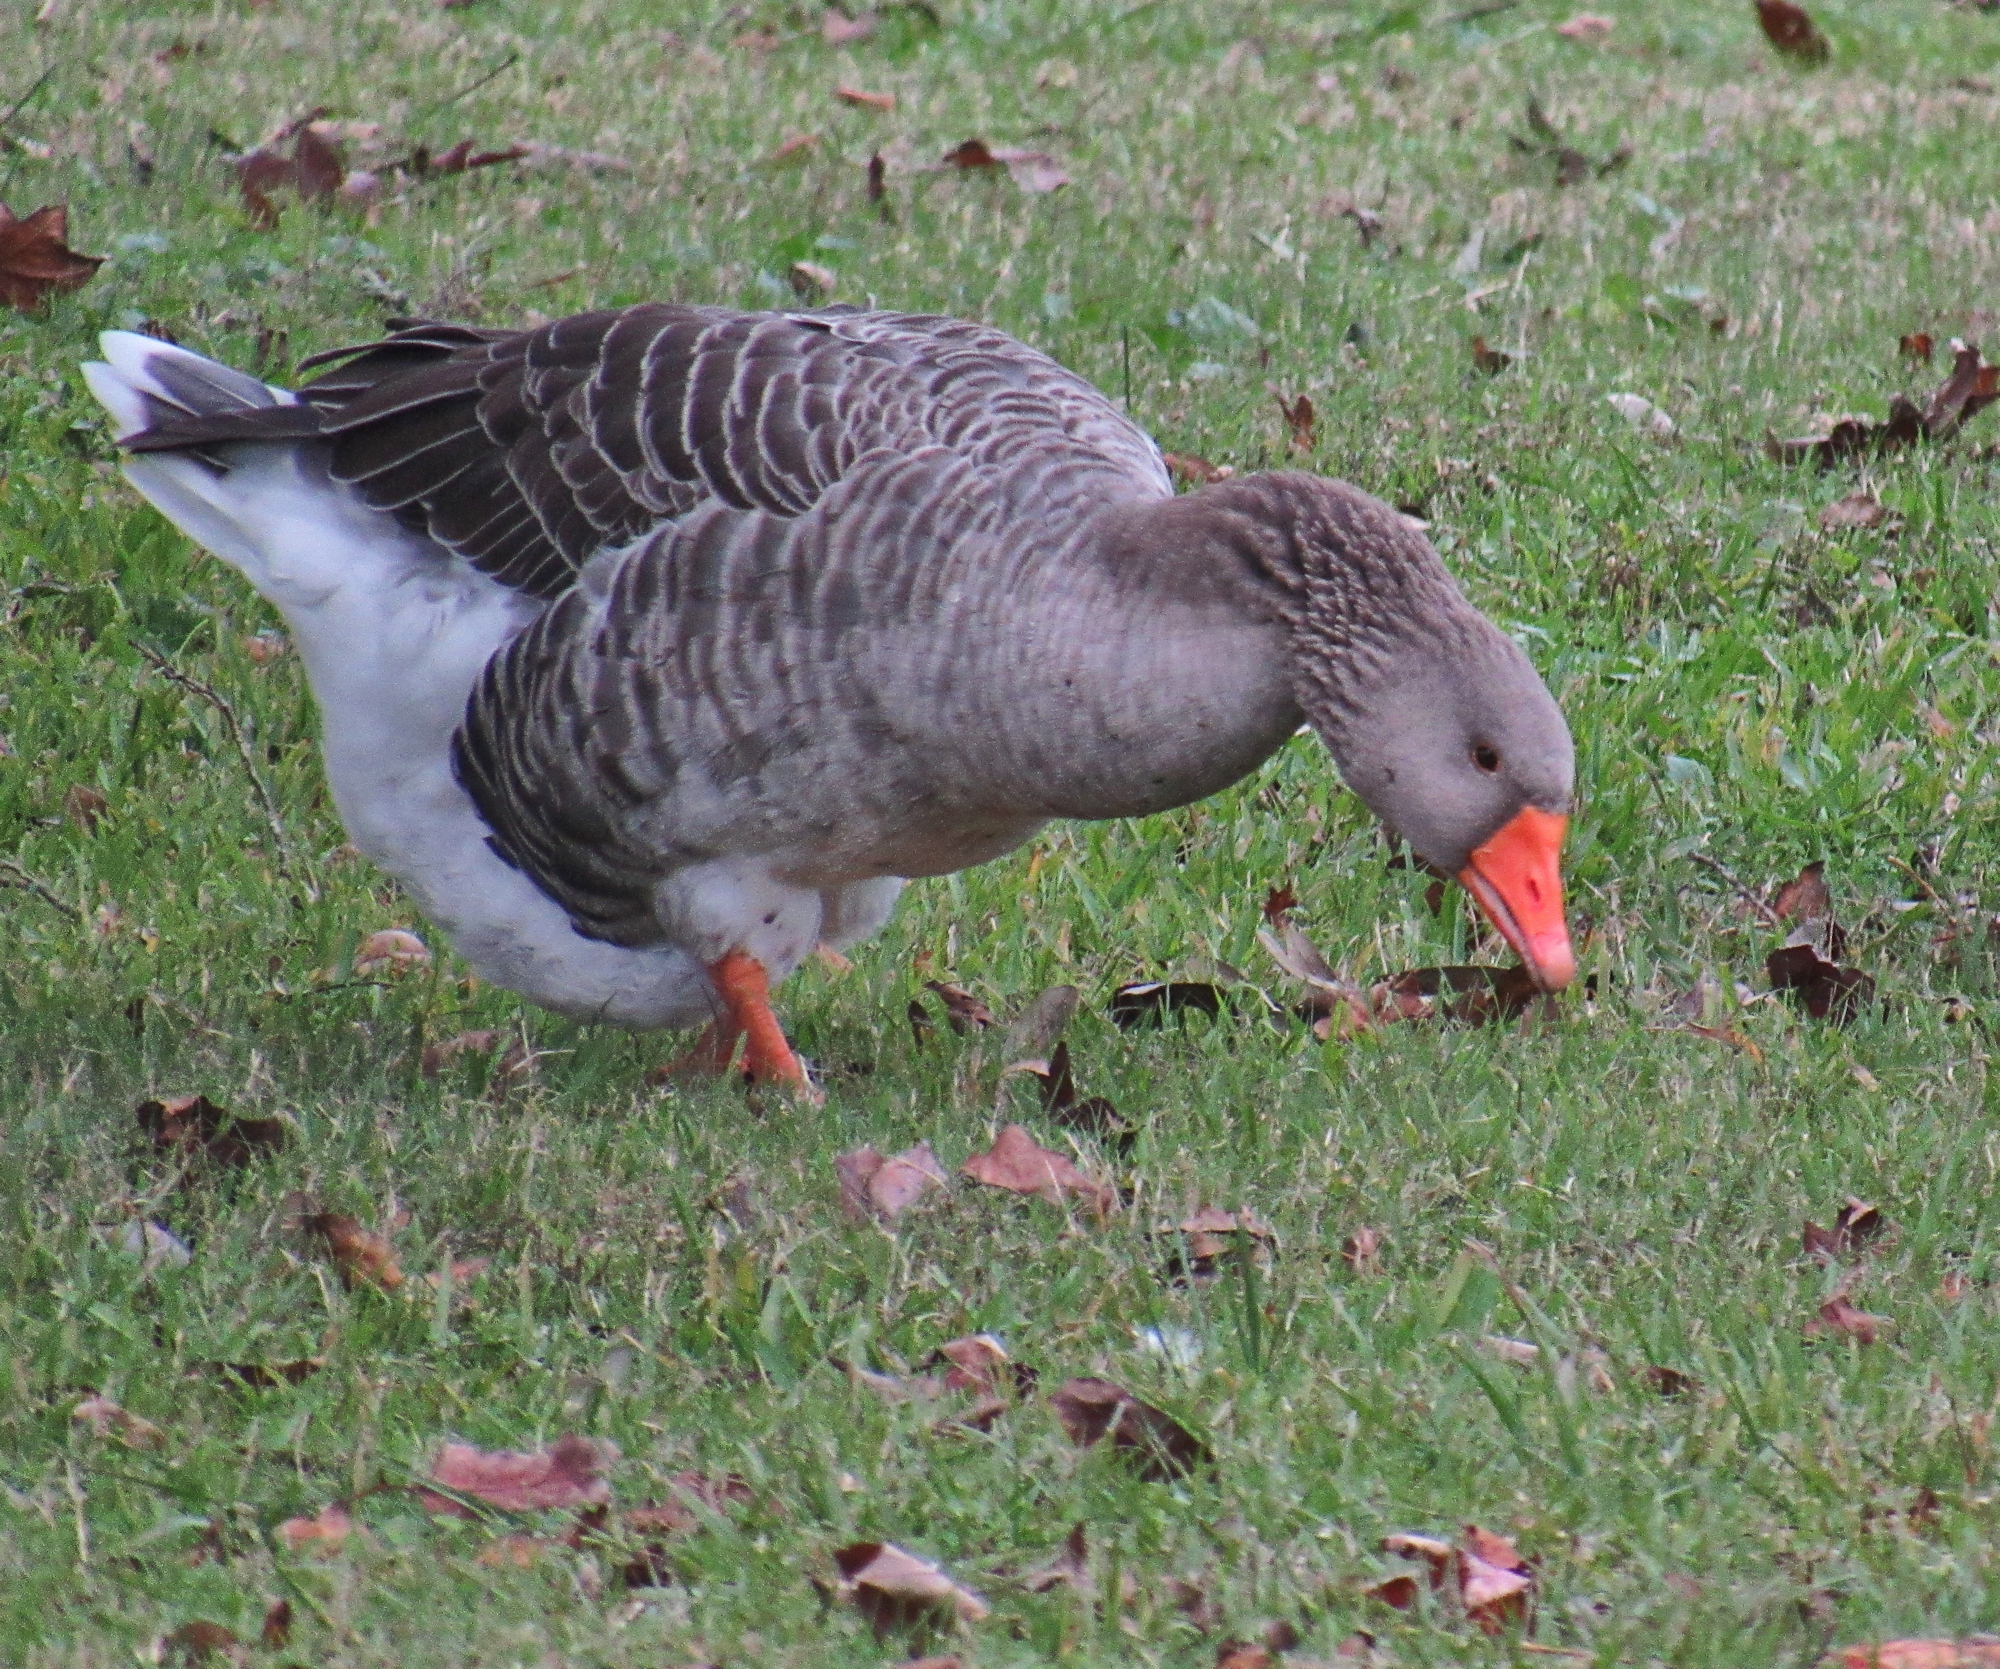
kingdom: Animalia
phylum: Chordata
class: Aves
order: Anseriformes
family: Anatidae
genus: Anser
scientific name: Anser anser
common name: Greylag goose
